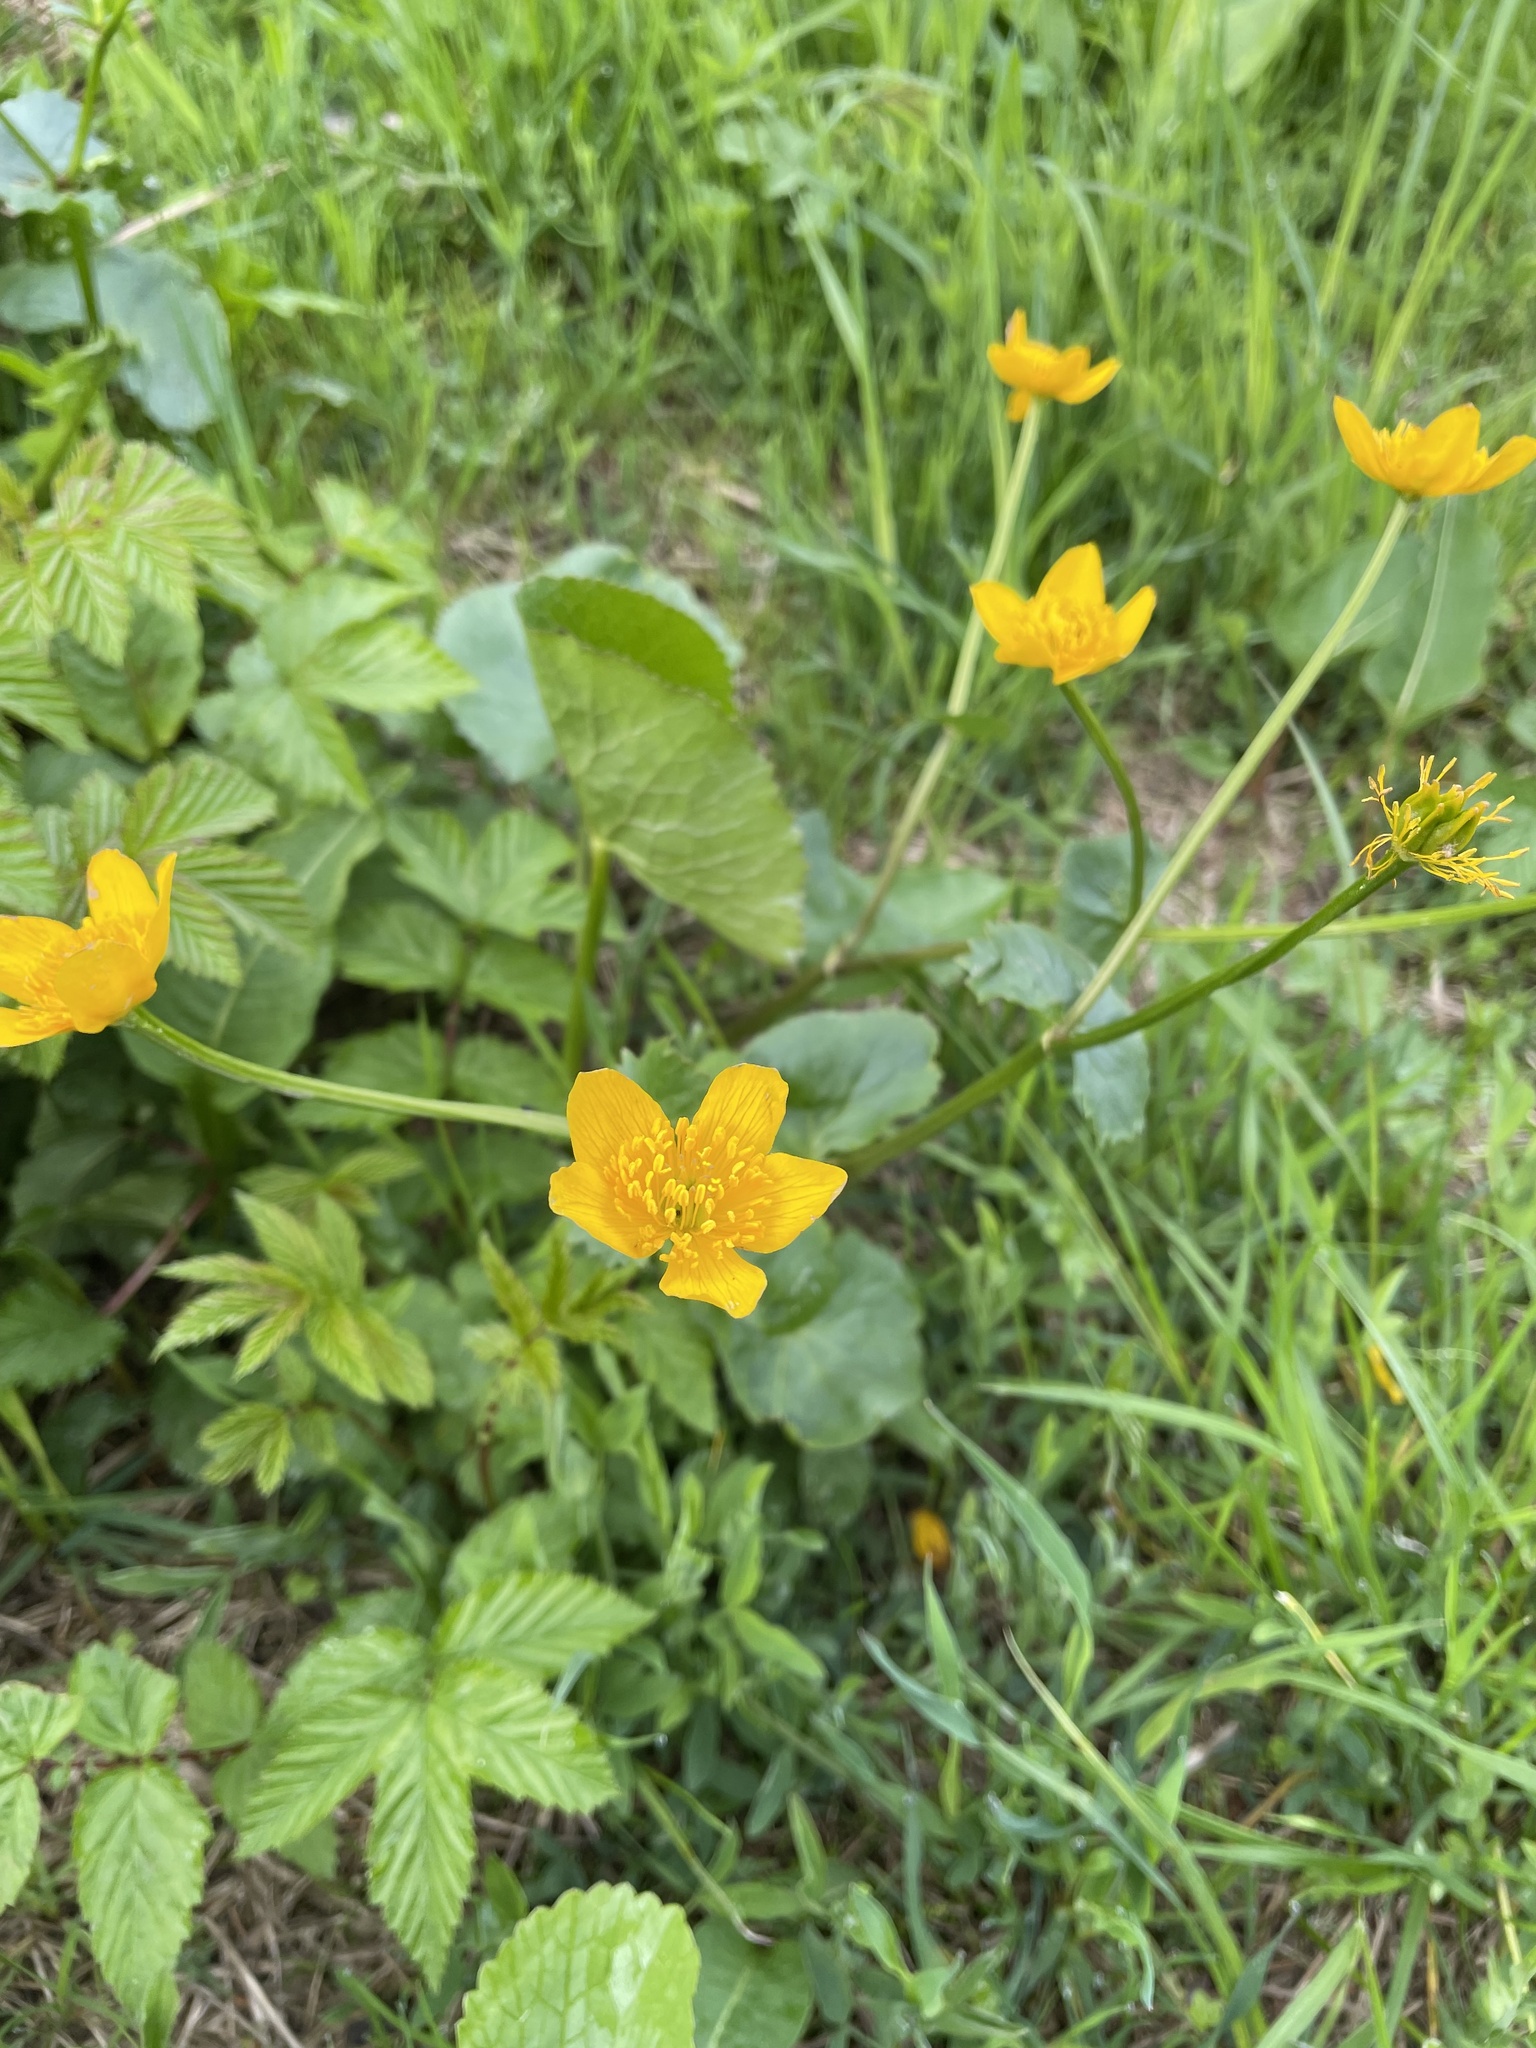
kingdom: Plantae
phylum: Tracheophyta
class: Magnoliopsida
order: Ranunculales
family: Ranunculaceae
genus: Caltha
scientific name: Caltha palustris
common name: Marsh marigold
